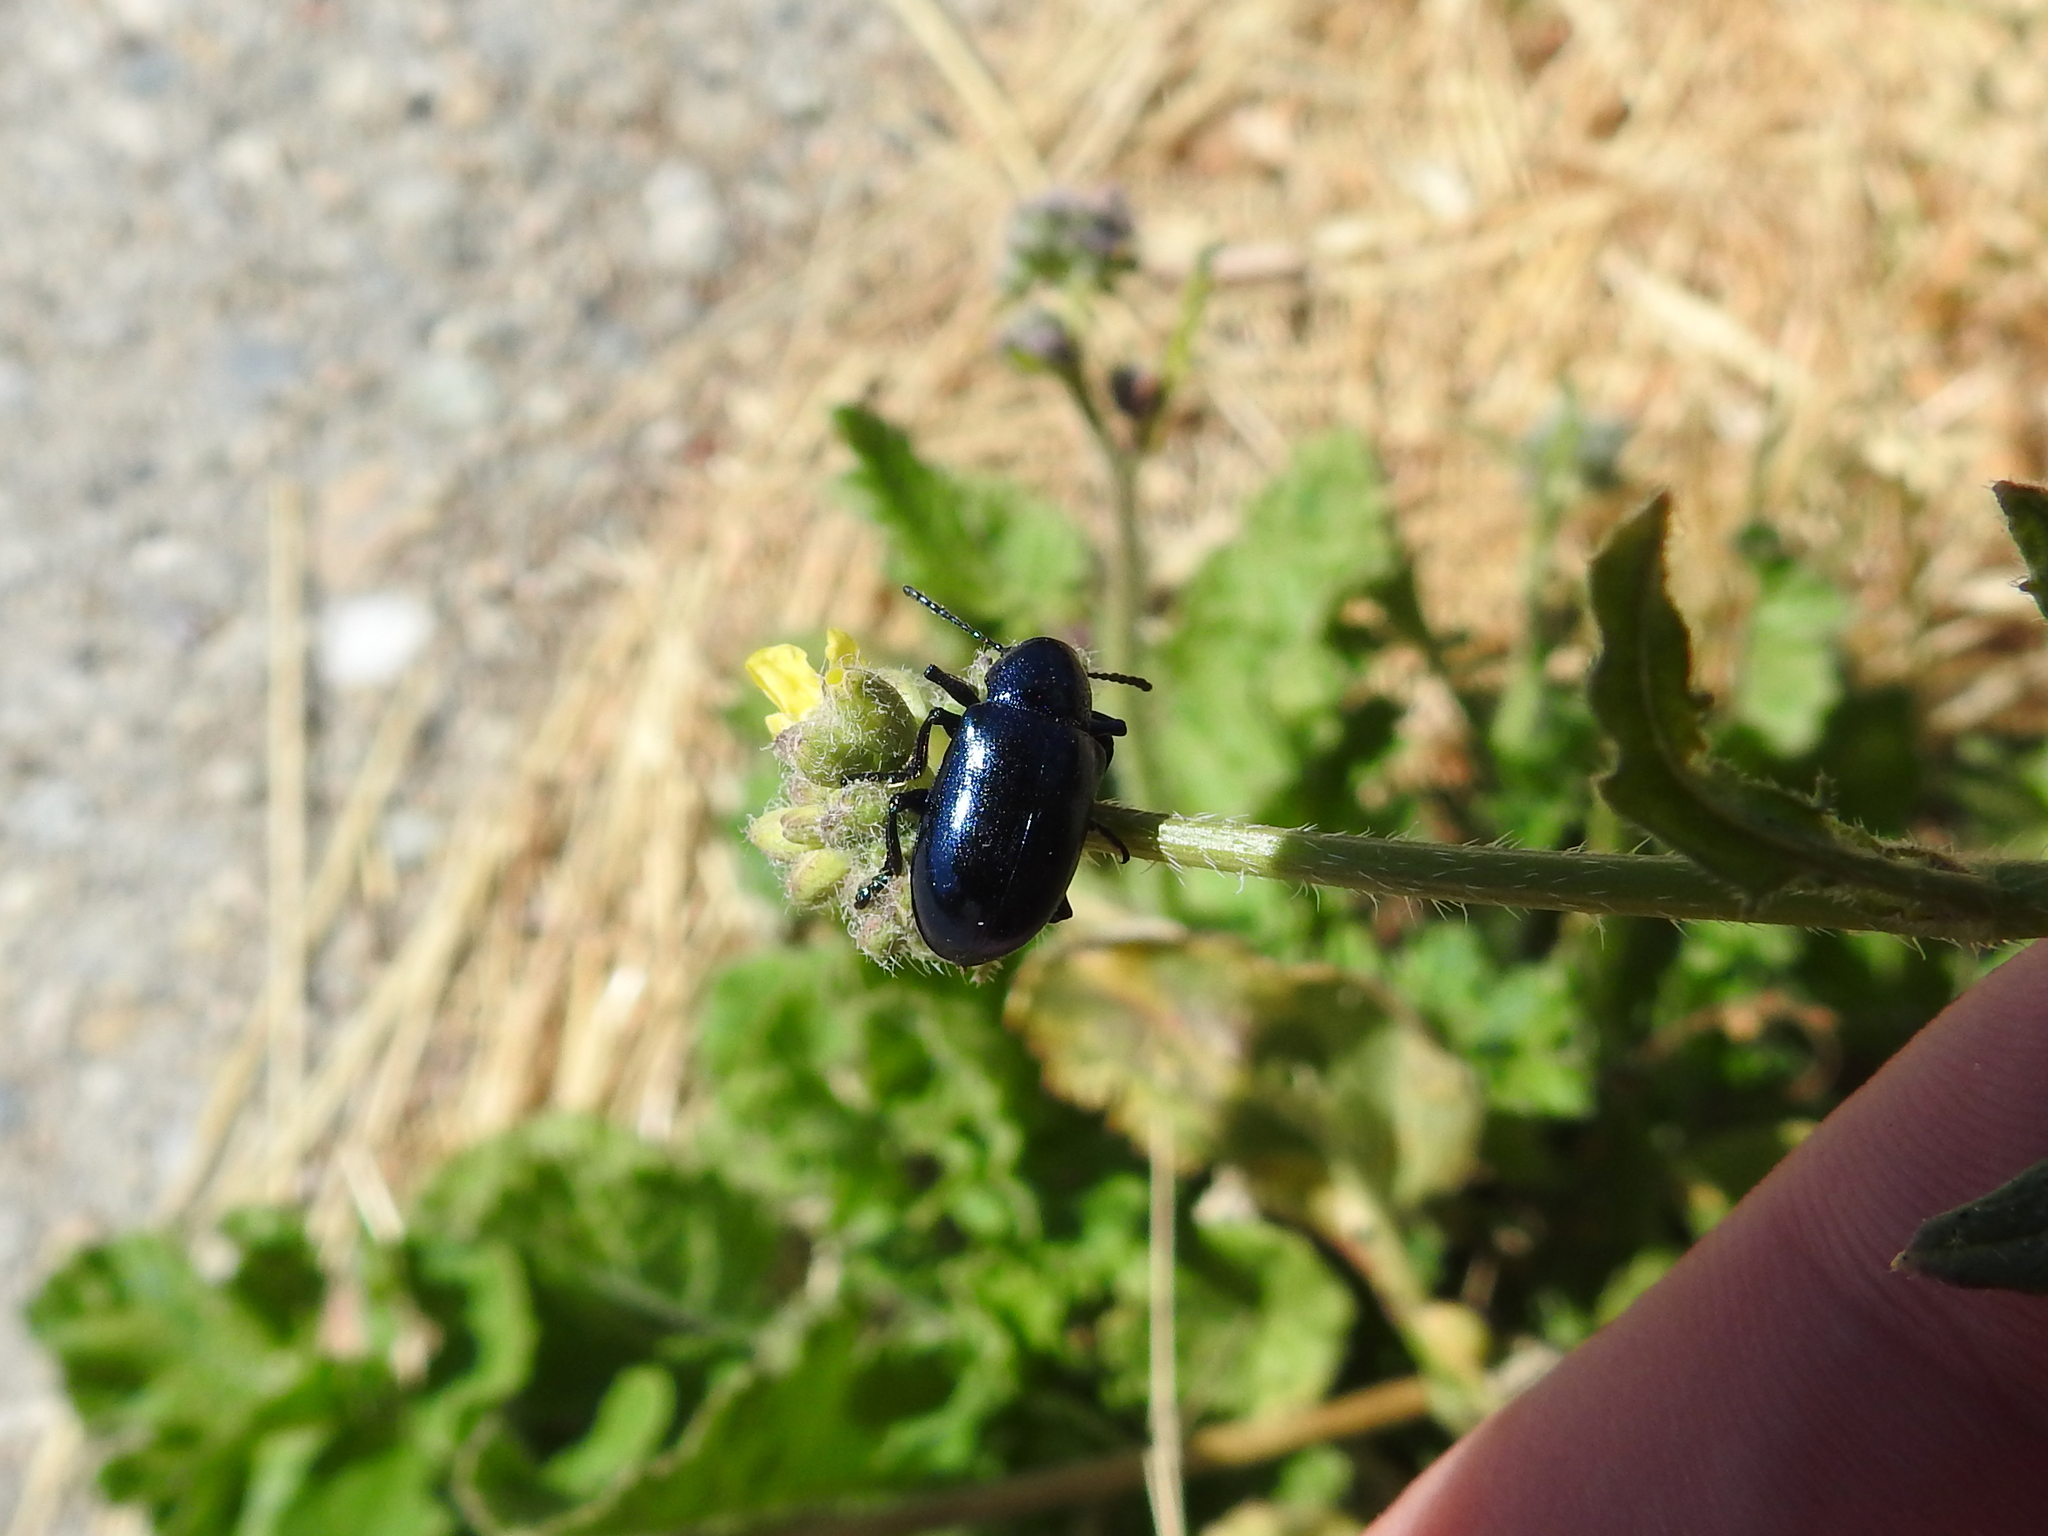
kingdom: Animalia
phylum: Arthropoda
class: Insecta
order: Coleoptera
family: Chrysomelidae
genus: Chrysochus
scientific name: Chrysochus cobaltinus
